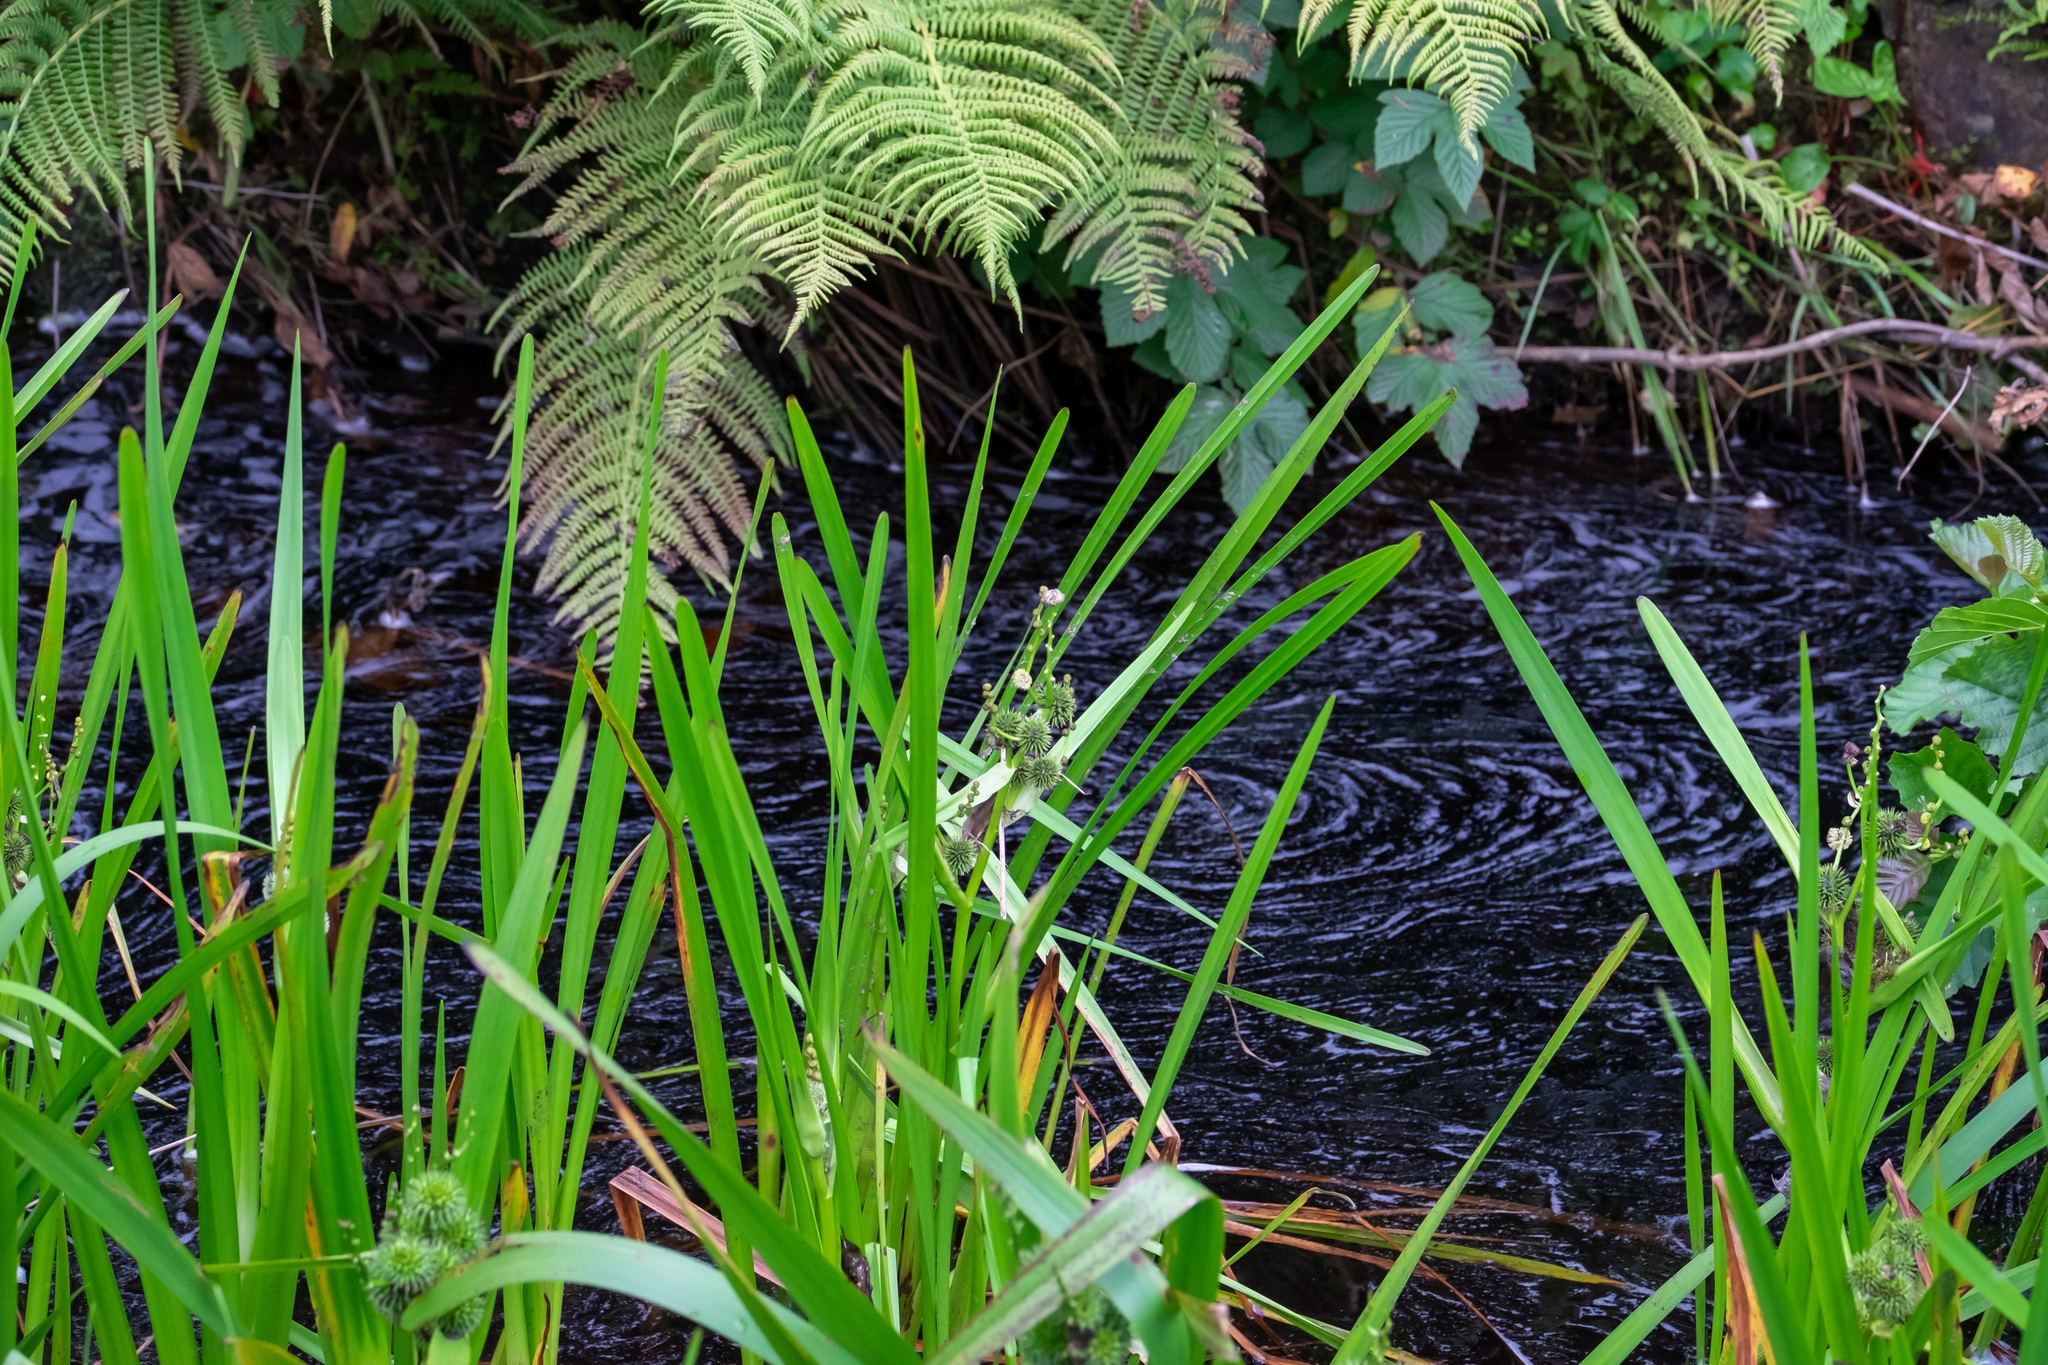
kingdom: Plantae
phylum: Tracheophyta
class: Liliopsida
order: Poales
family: Typhaceae
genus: Sparganium
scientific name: Sparganium erectum
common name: Branched bur-reed
